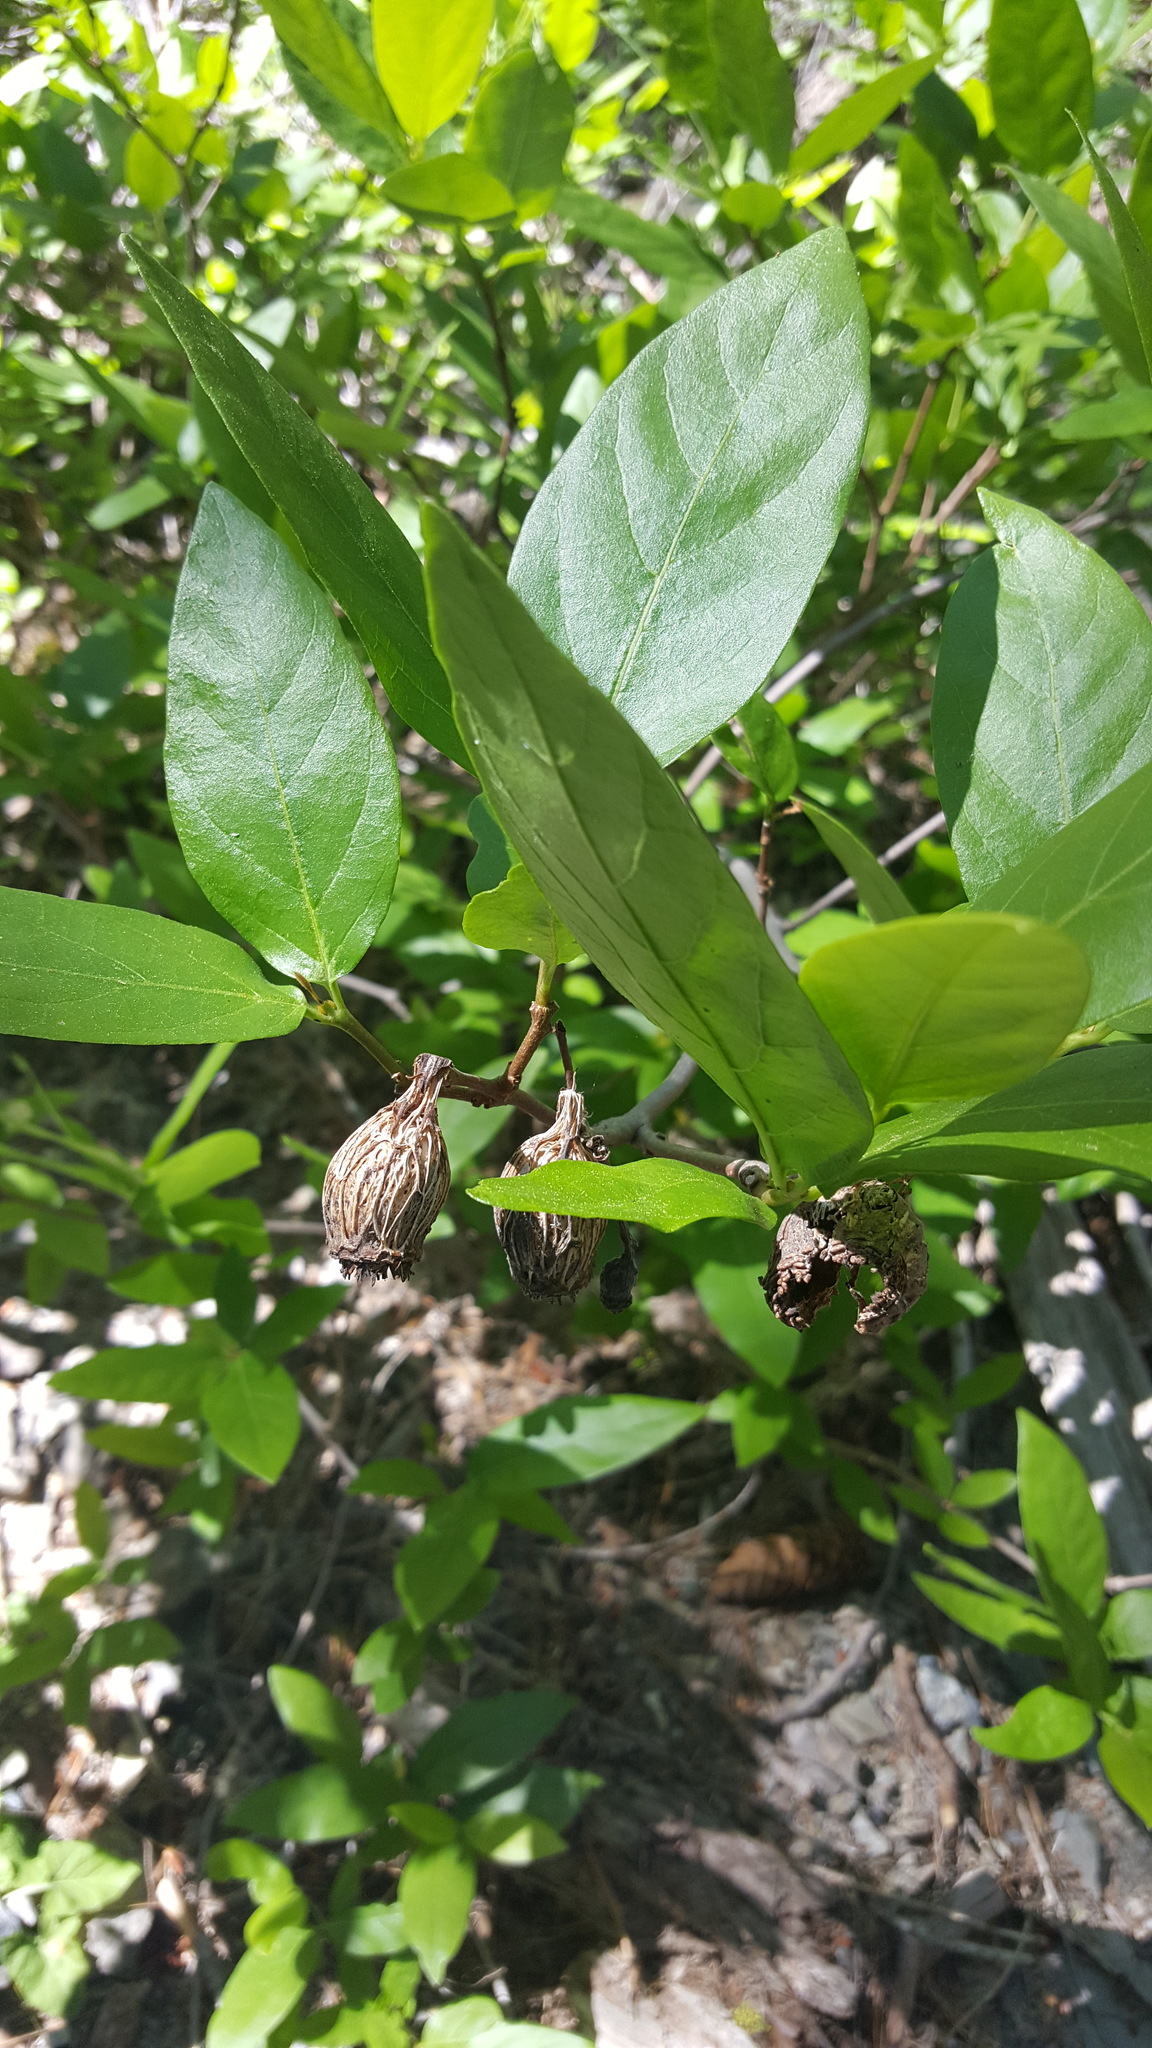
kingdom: Plantae
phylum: Tracheophyta
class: Magnoliopsida
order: Laurales
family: Calycanthaceae
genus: Calycanthus
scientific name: Calycanthus occidentalis
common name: California spicebush
